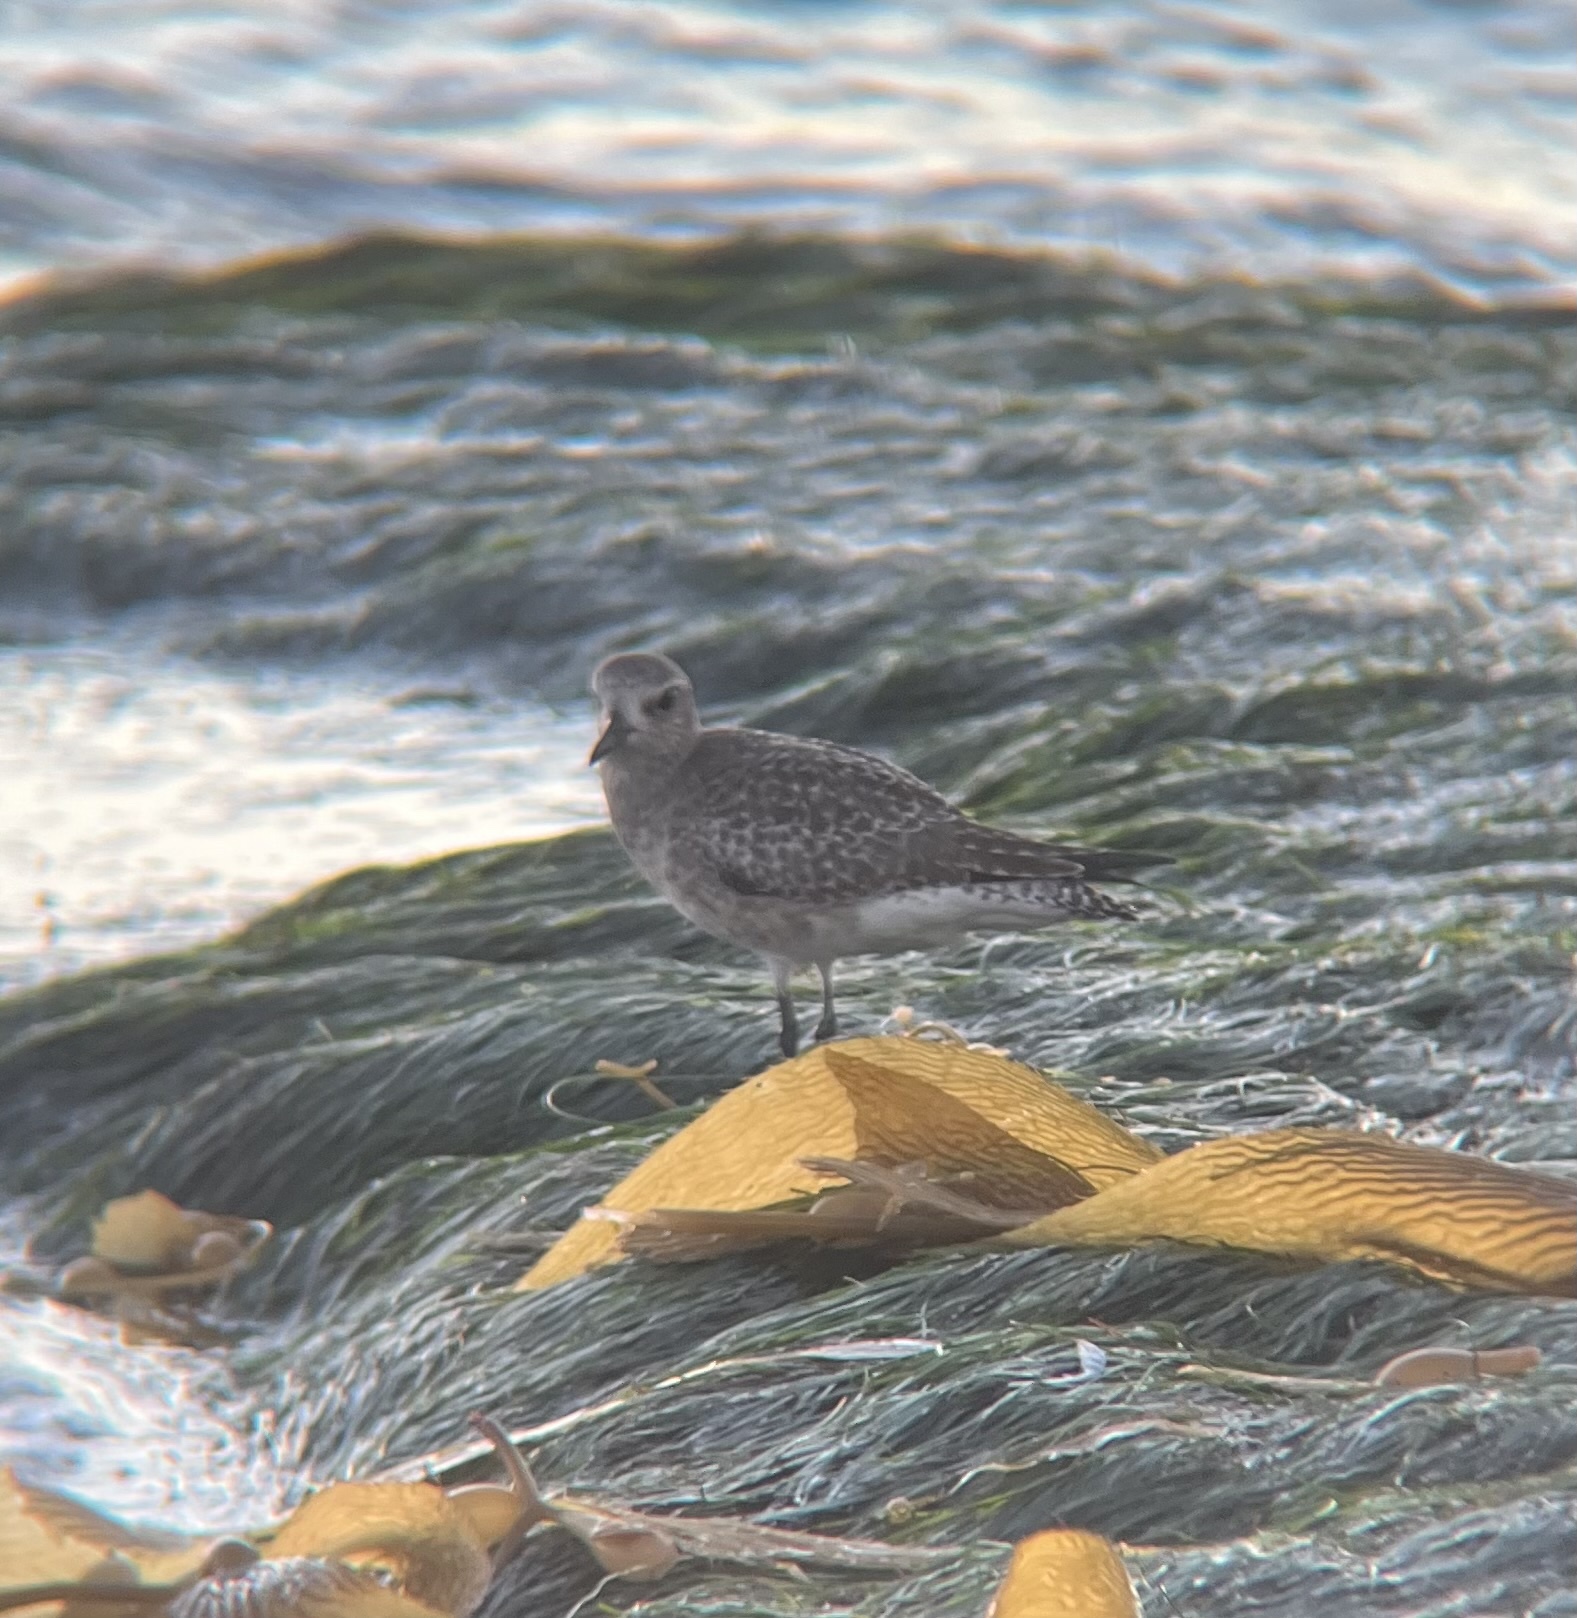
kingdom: Animalia
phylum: Chordata
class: Aves
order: Charadriiformes
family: Charadriidae
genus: Pluvialis
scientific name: Pluvialis squatarola
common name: Grey plover
